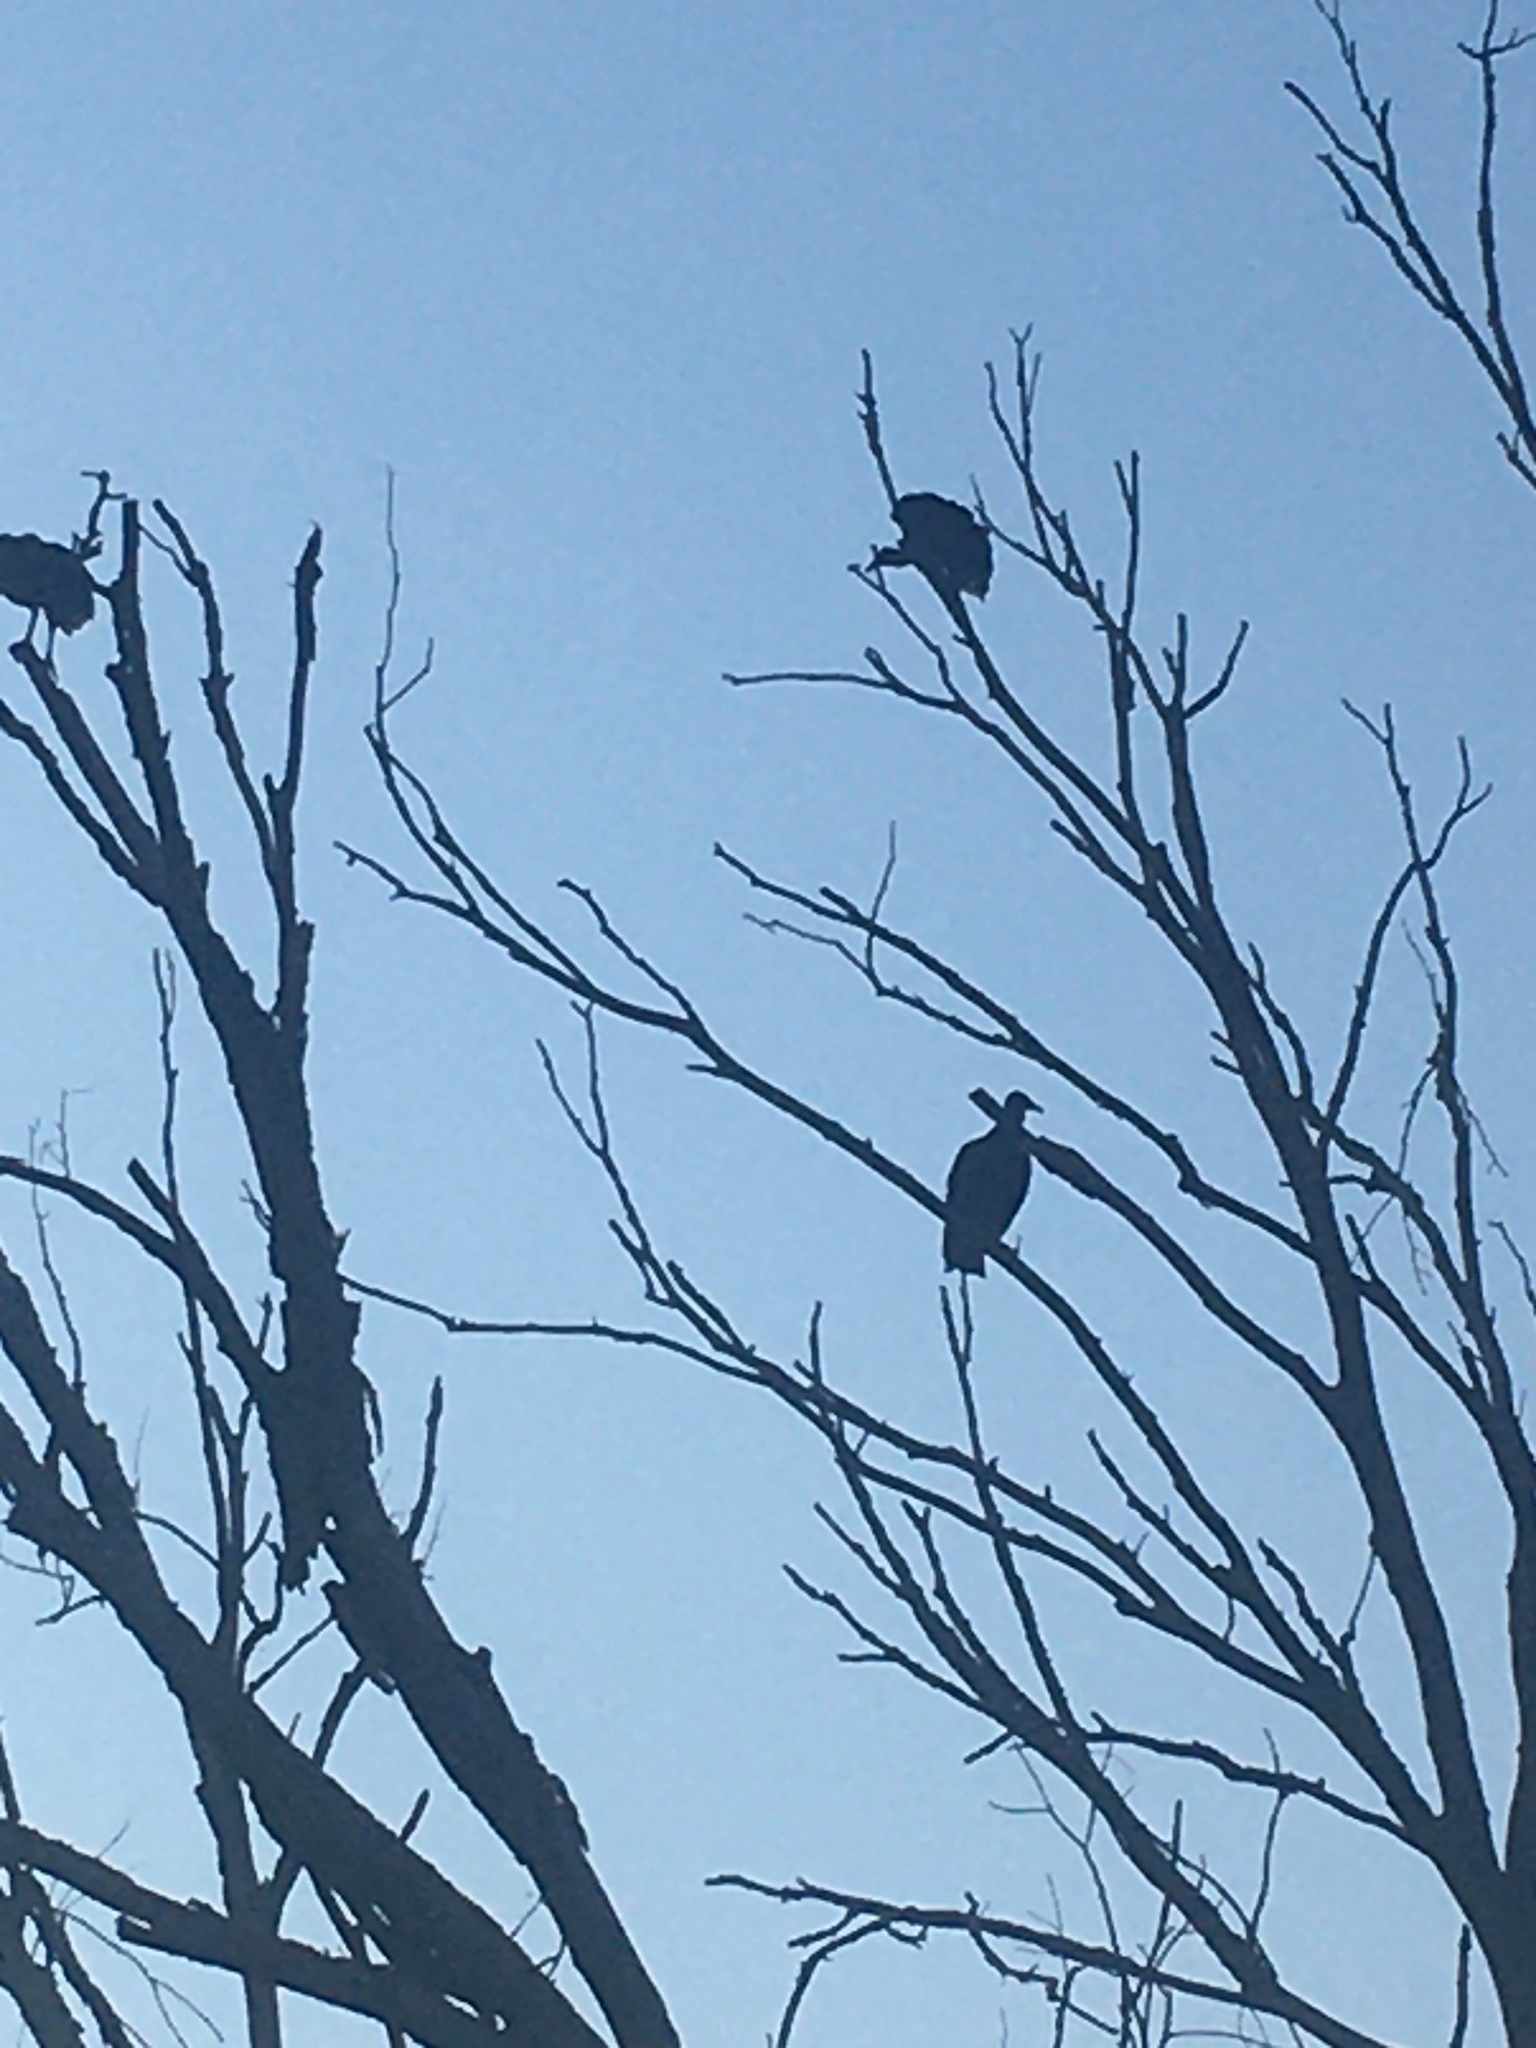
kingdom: Animalia
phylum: Chordata
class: Aves
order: Accipitriformes
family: Cathartidae
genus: Coragyps
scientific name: Coragyps atratus
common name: Black vulture
